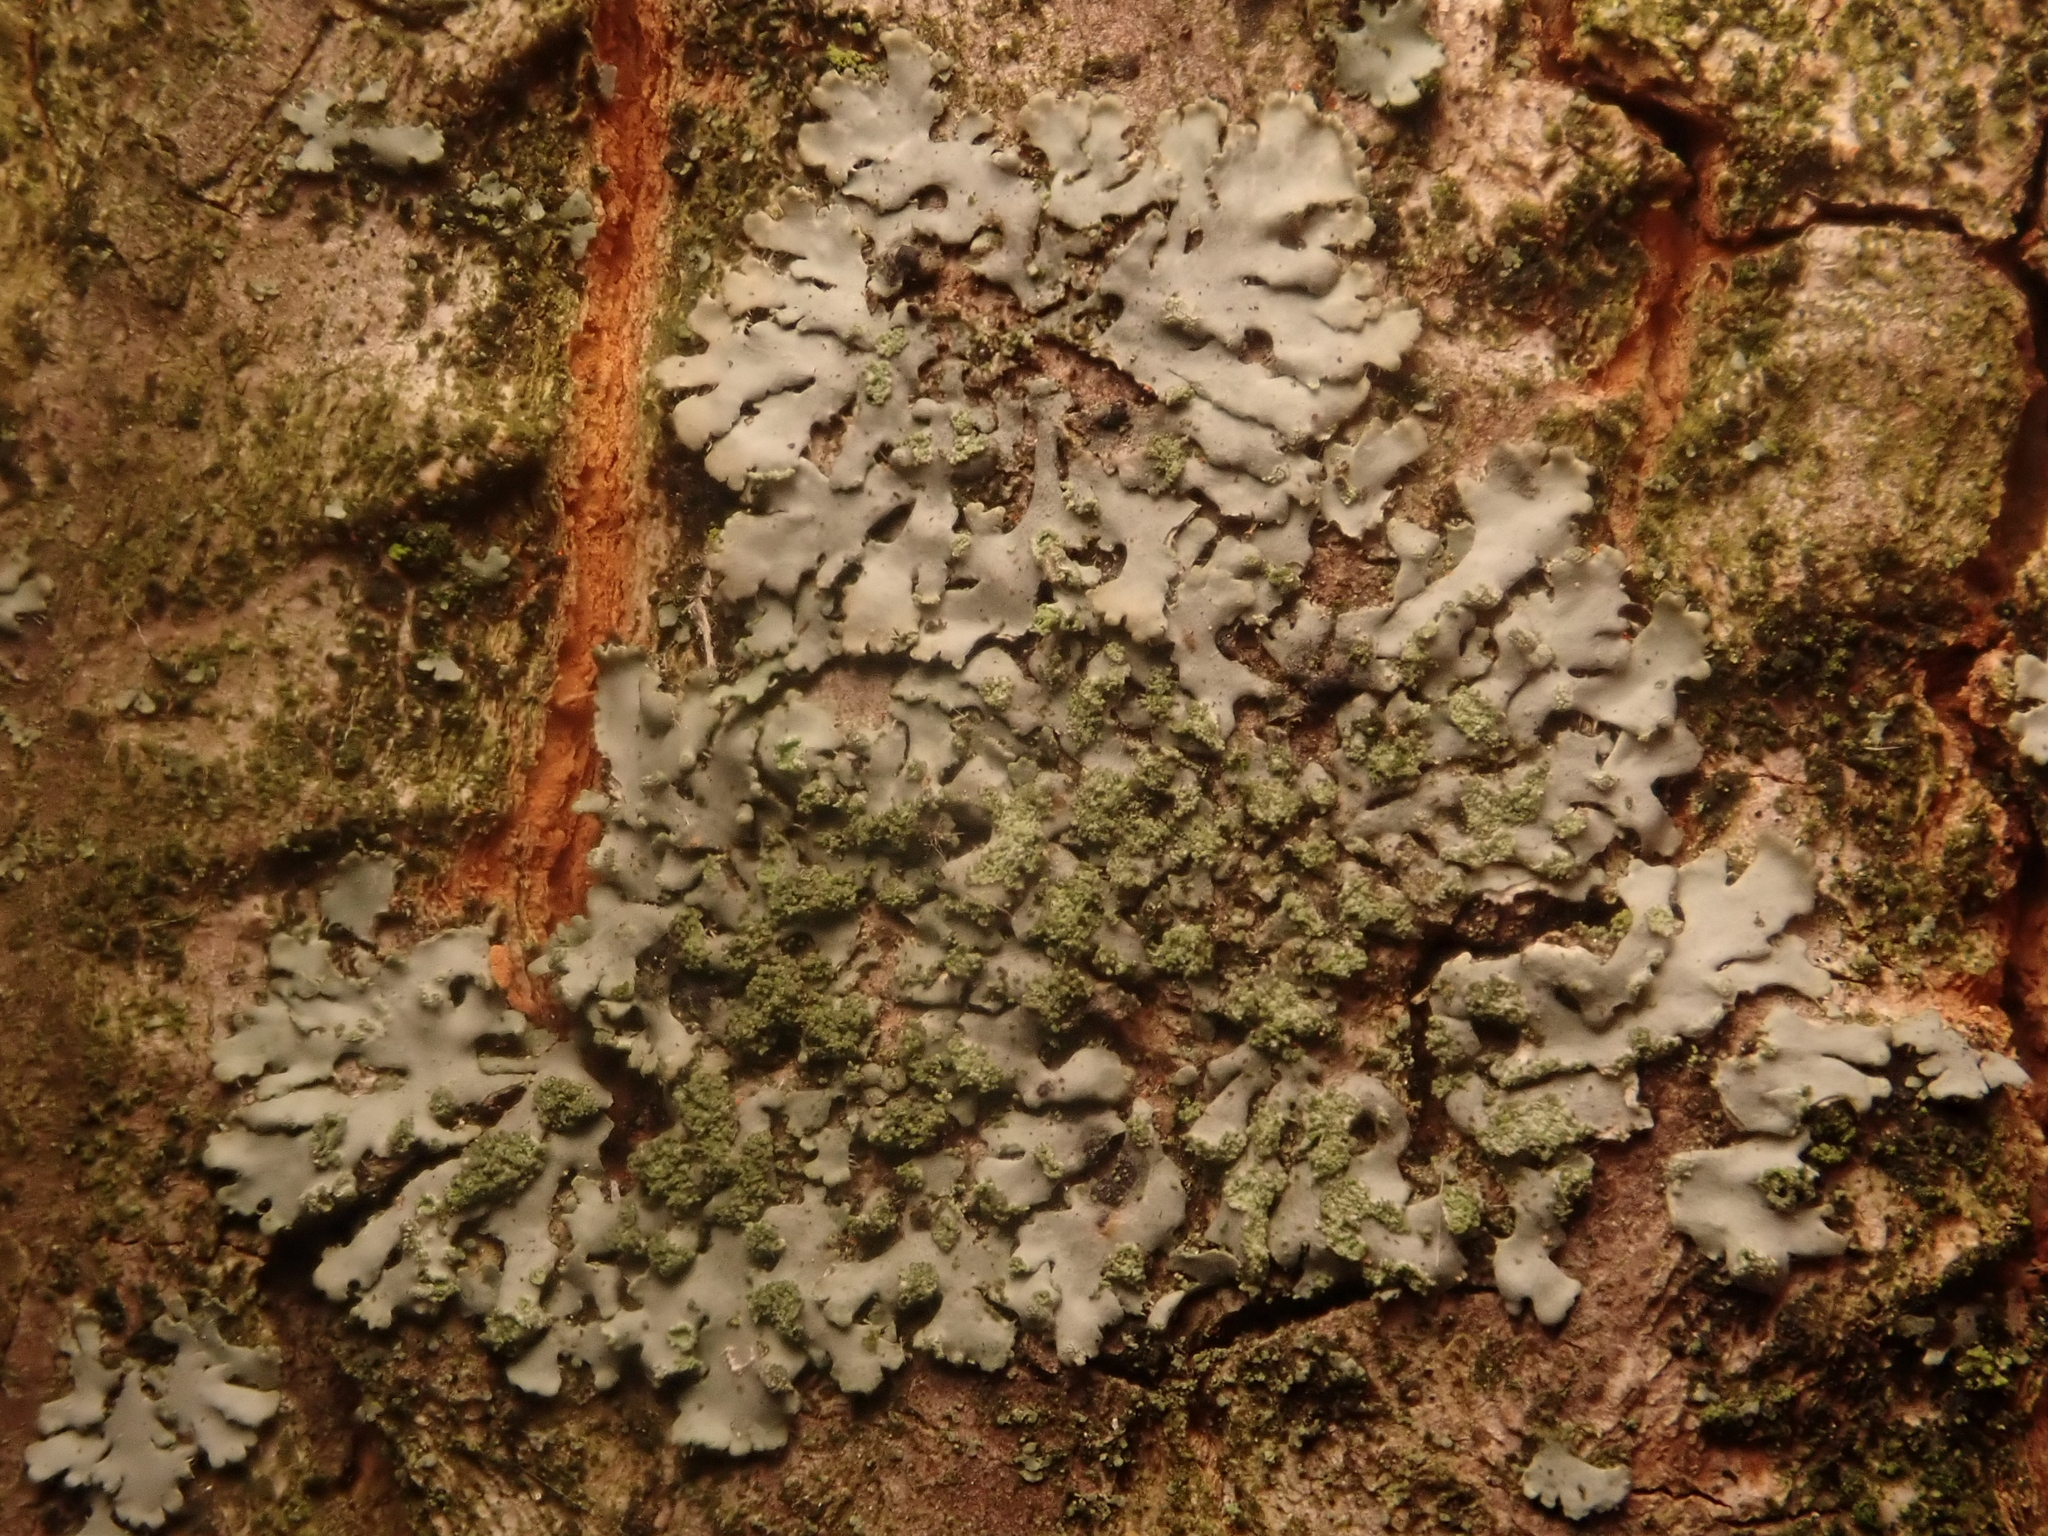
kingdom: Fungi
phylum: Ascomycota
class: Lecanoromycetes
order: Caliciales
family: Physciaceae
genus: Phaeophyscia
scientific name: Phaeophyscia orbicularis
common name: Mealy shadow lichen
